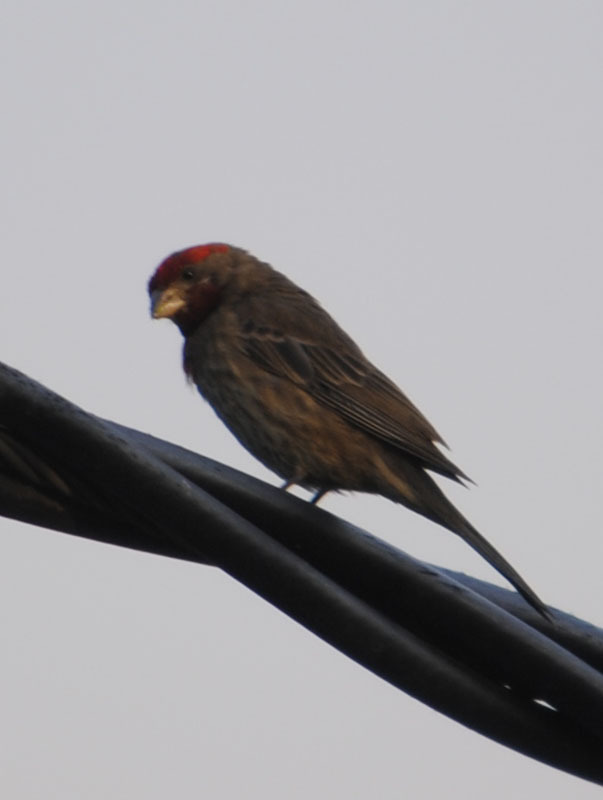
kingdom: Animalia
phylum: Chordata
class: Aves
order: Passeriformes
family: Fringillidae
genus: Haemorhous
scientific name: Haemorhous mexicanus
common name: House finch
